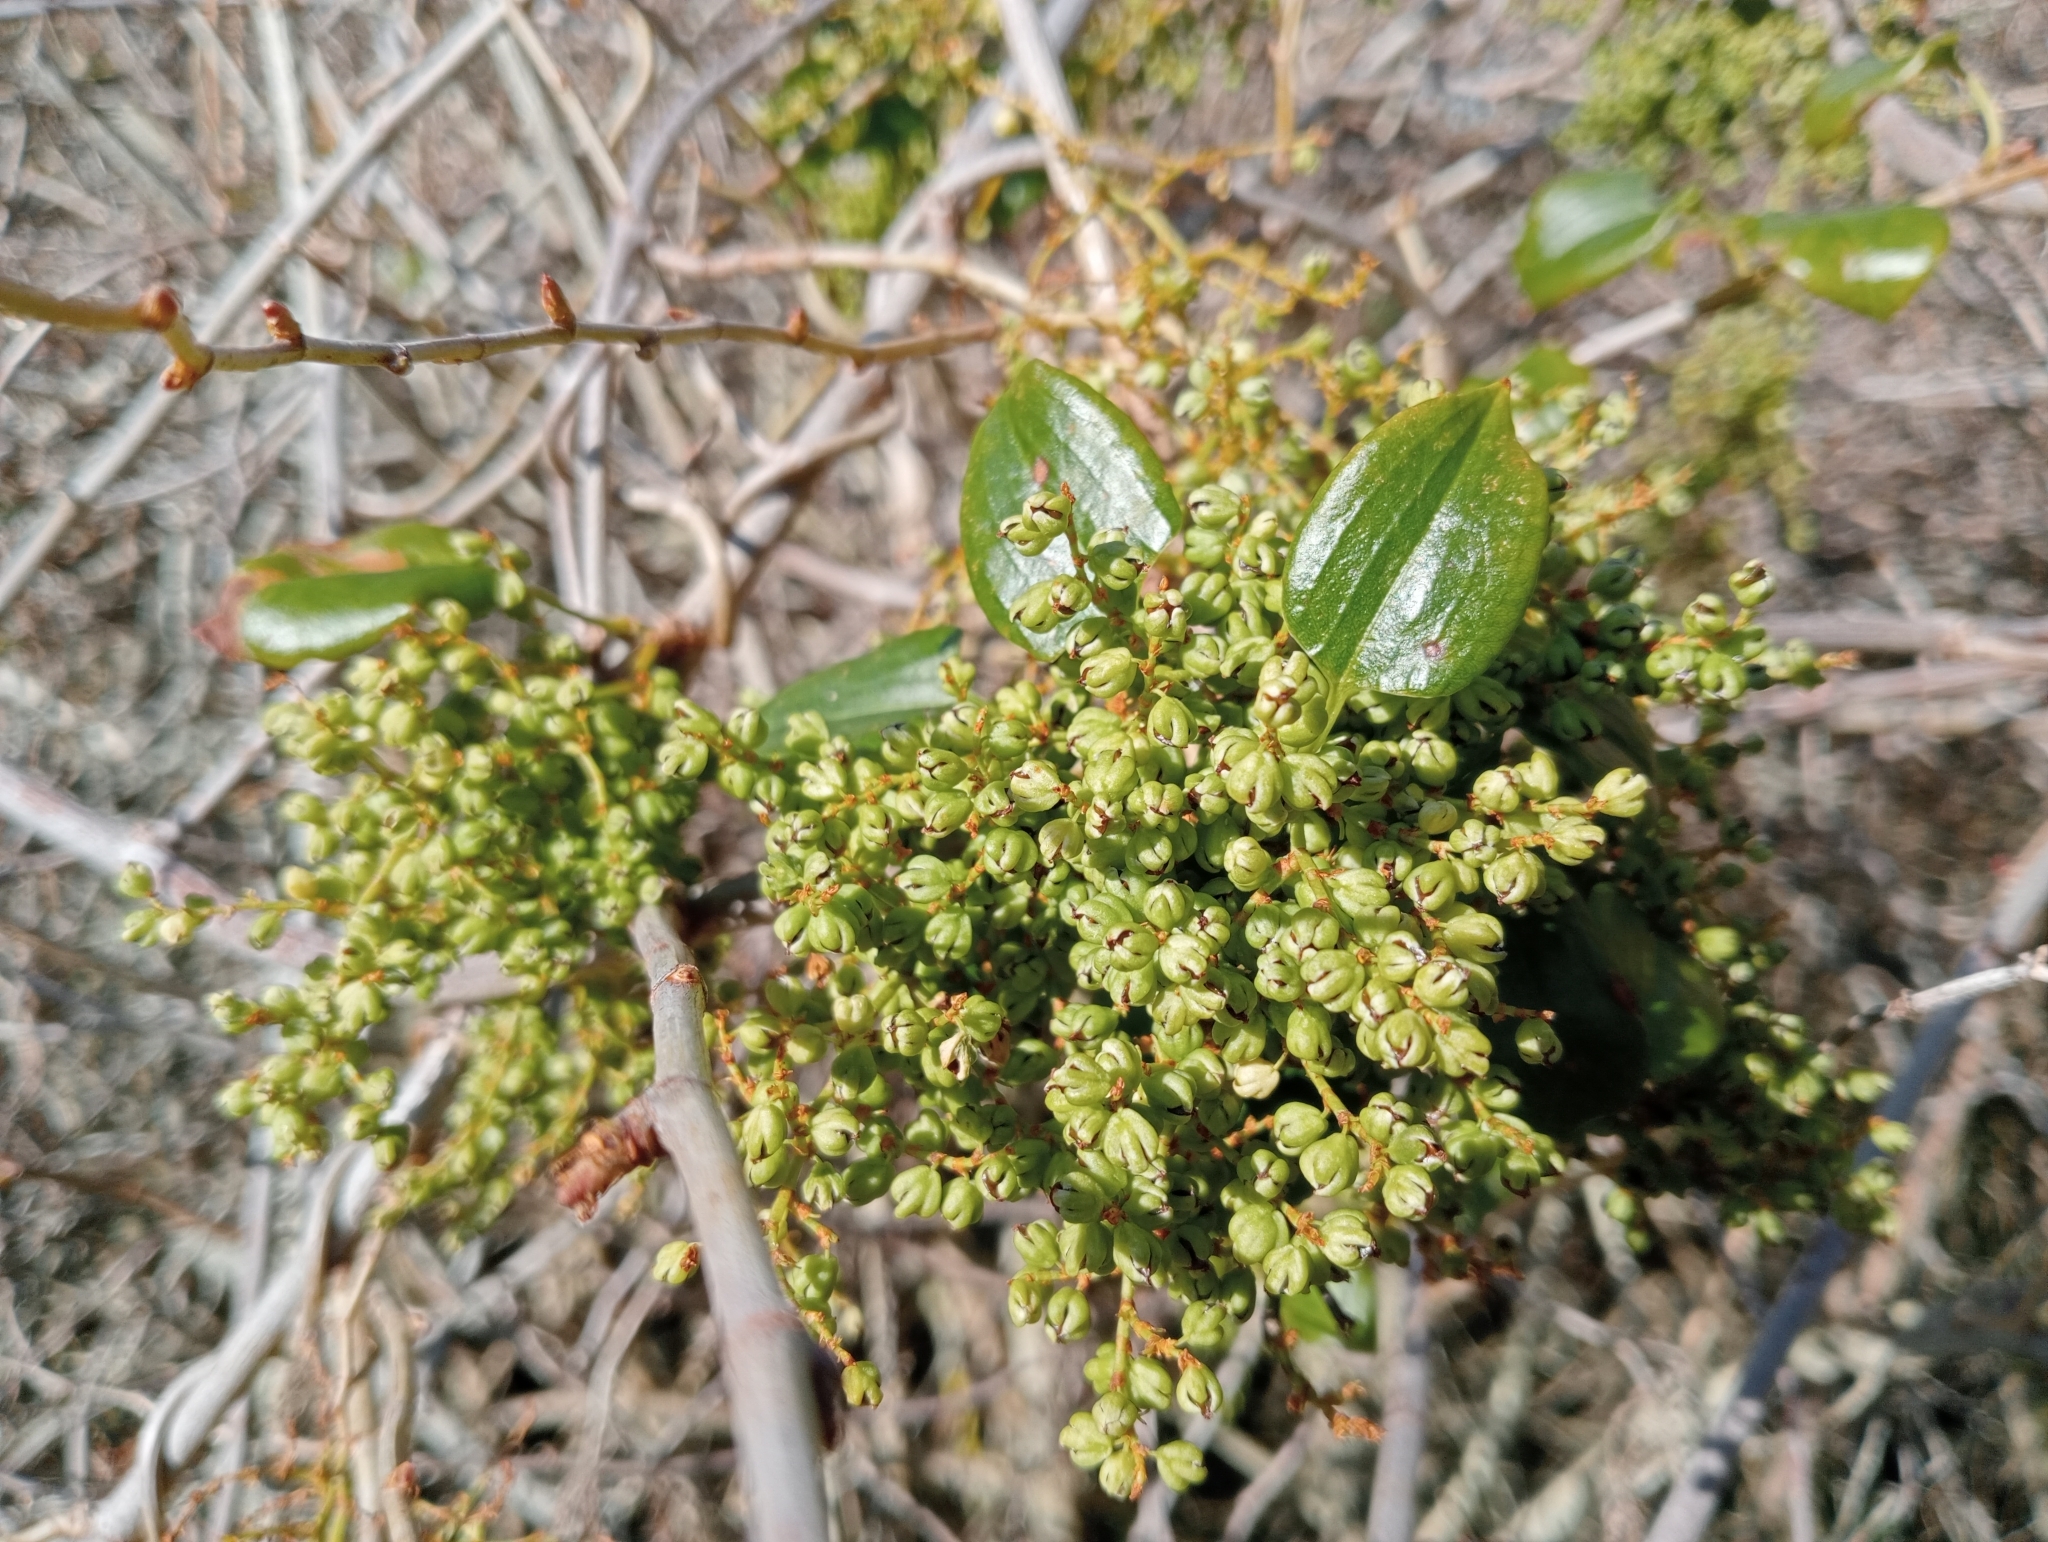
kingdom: Plantae
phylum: Tracheophyta
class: Magnoliopsida
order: Caryophyllales
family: Polygonaceae
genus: Muehlenbeckia
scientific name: Muehlenbeckia australis
